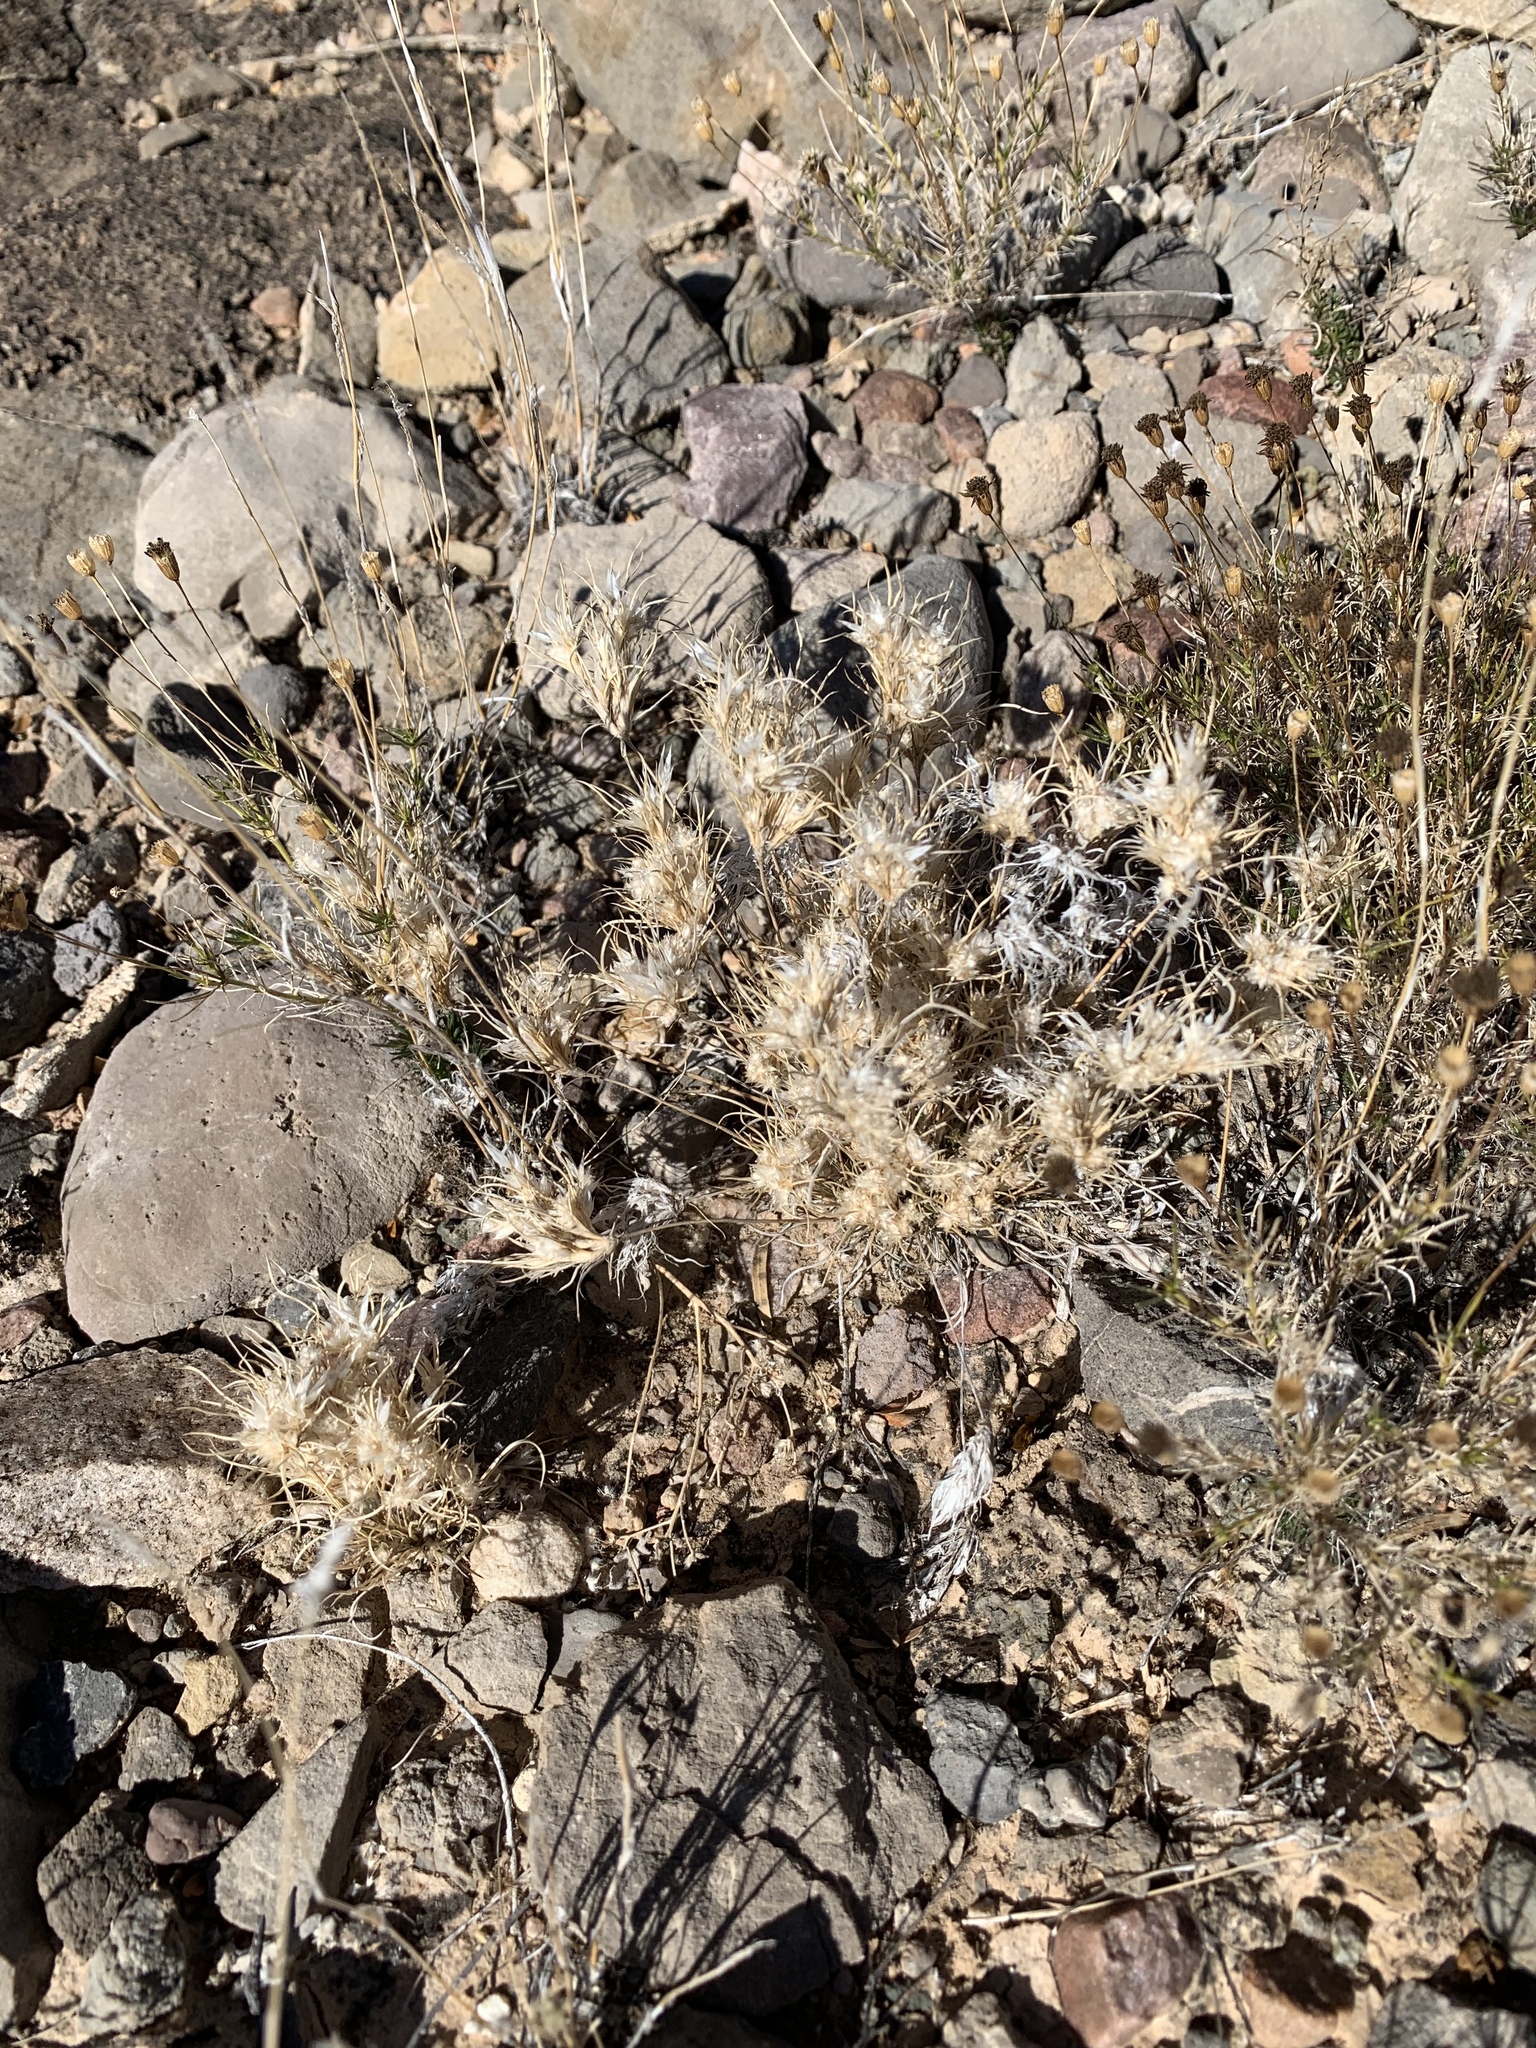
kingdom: Plantae
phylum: Tracheophyta
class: Liliopsida
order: Poales
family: Poaceae
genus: Dasyochloa
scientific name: Dasyochloa pulchella
